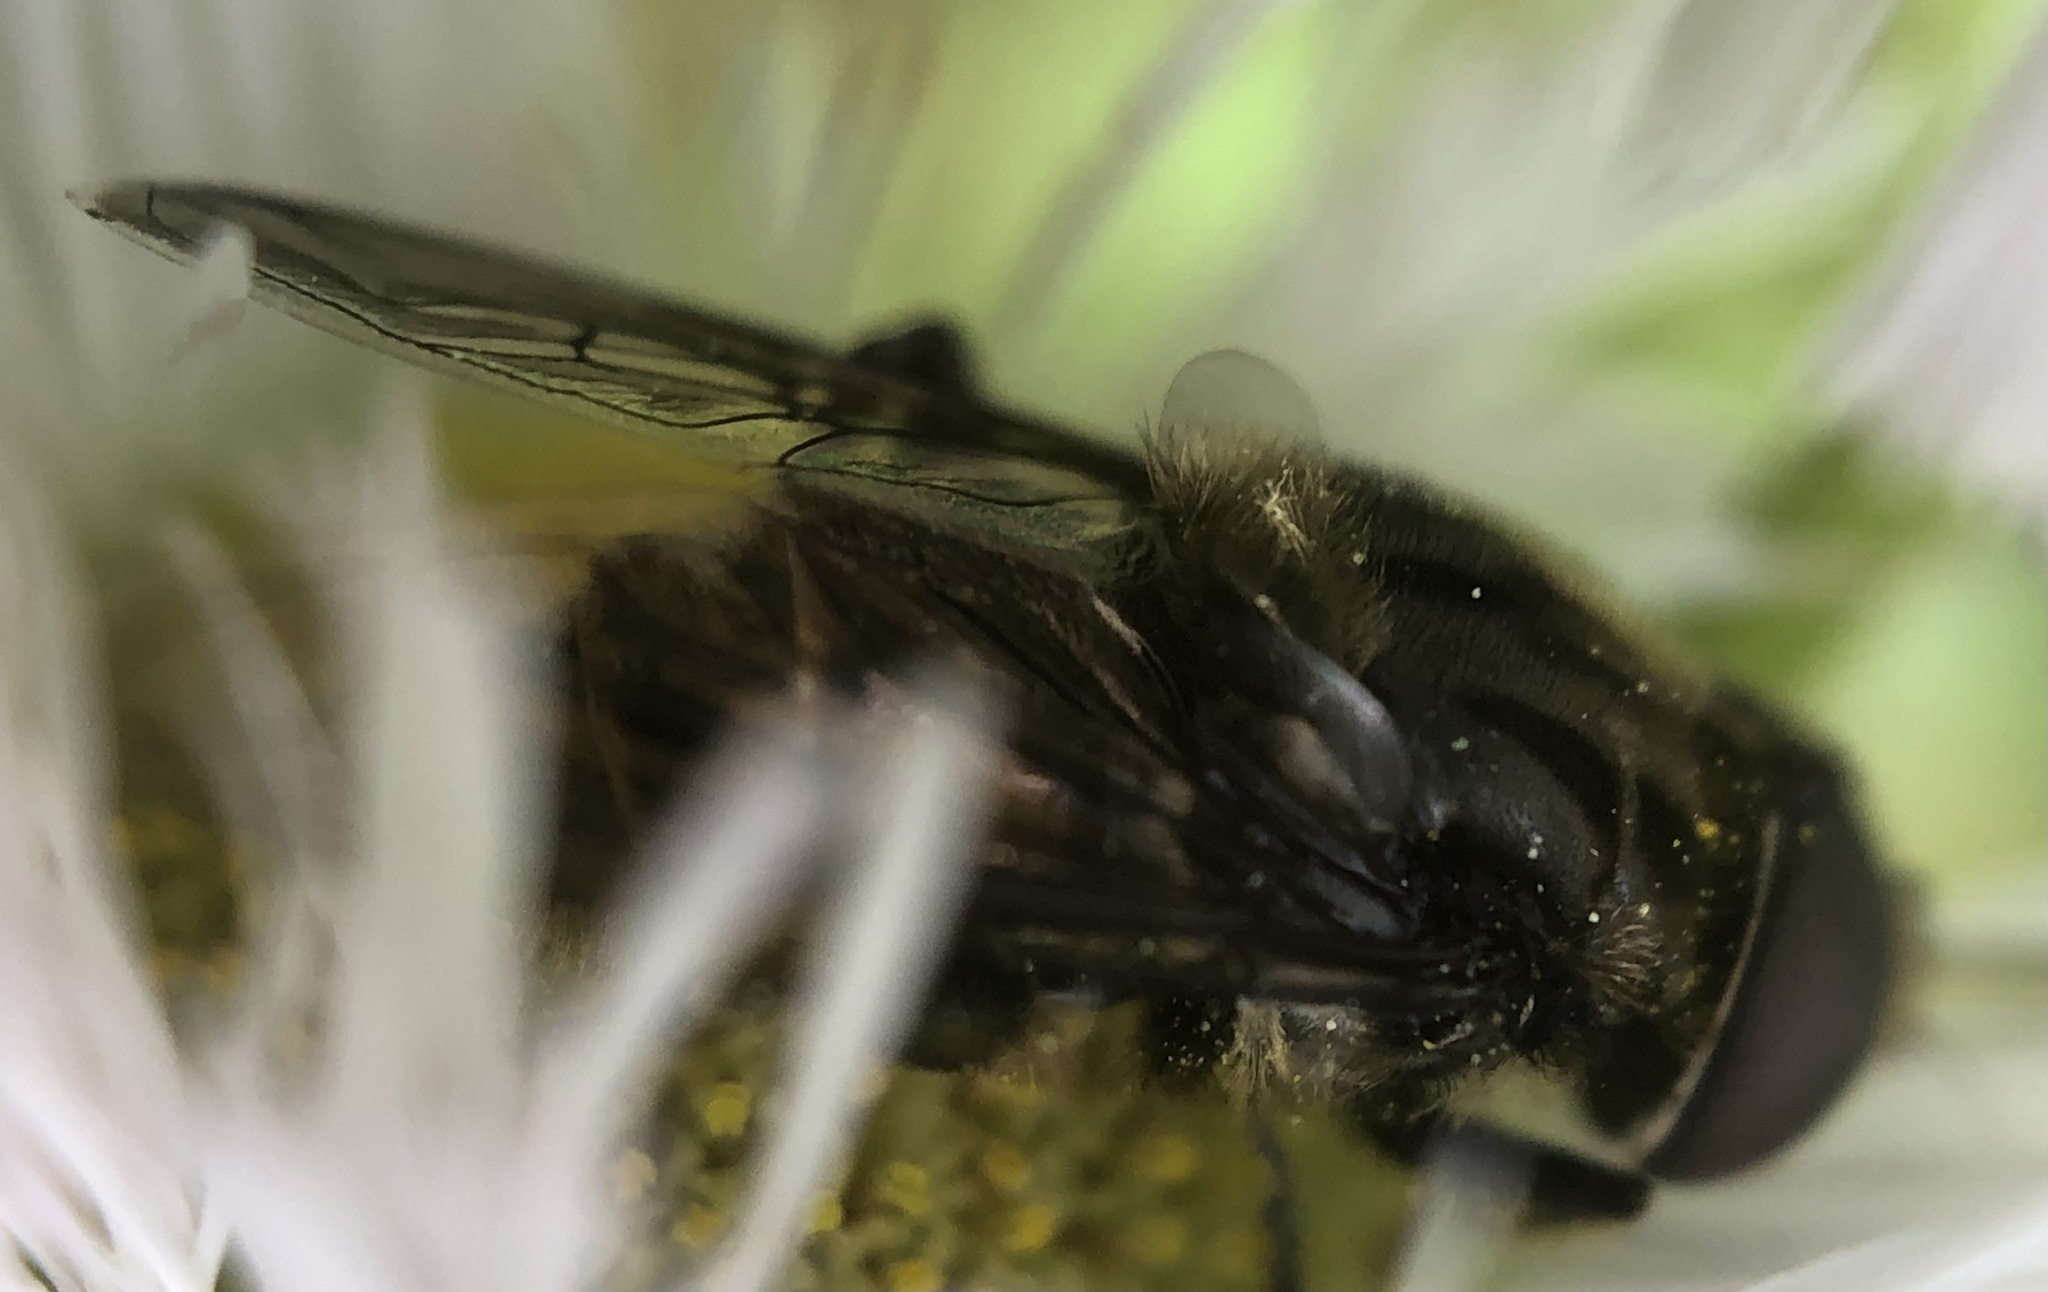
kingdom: Animalia
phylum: Arthropoda
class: Insecta
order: Diptera
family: Syrphidae
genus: Palpada
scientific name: Palpada furcata
